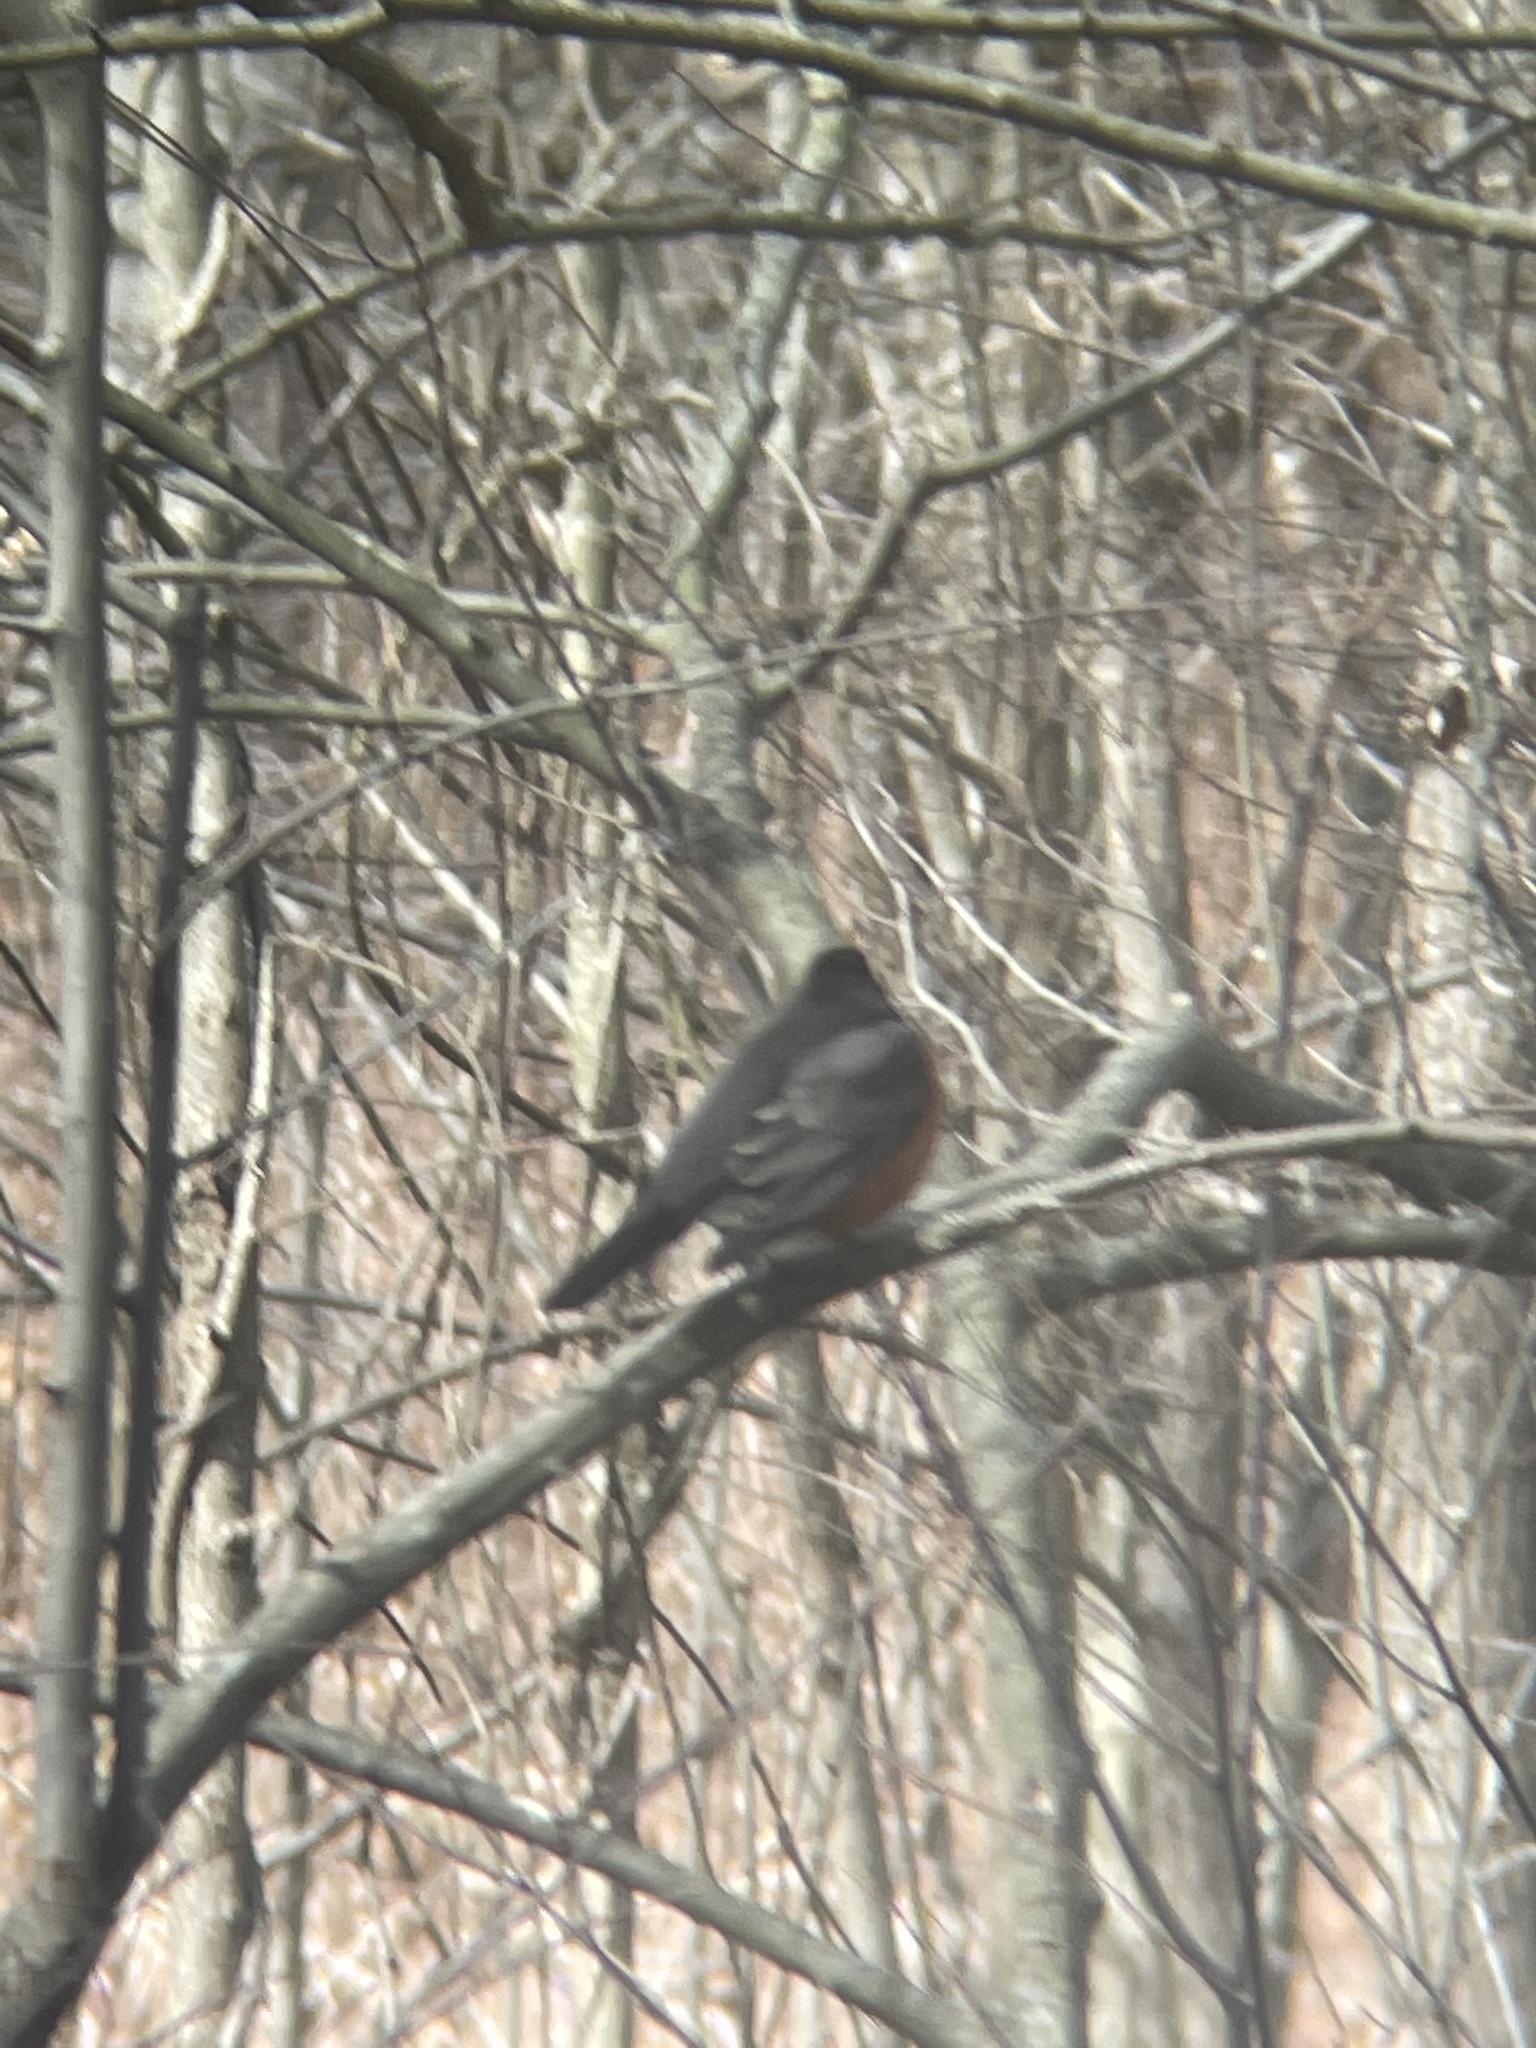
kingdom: Animalia
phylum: Chordata
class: Aves
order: Passeriformes
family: Turdidae
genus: Turdus
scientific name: Turdus migratorius
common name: American robin
